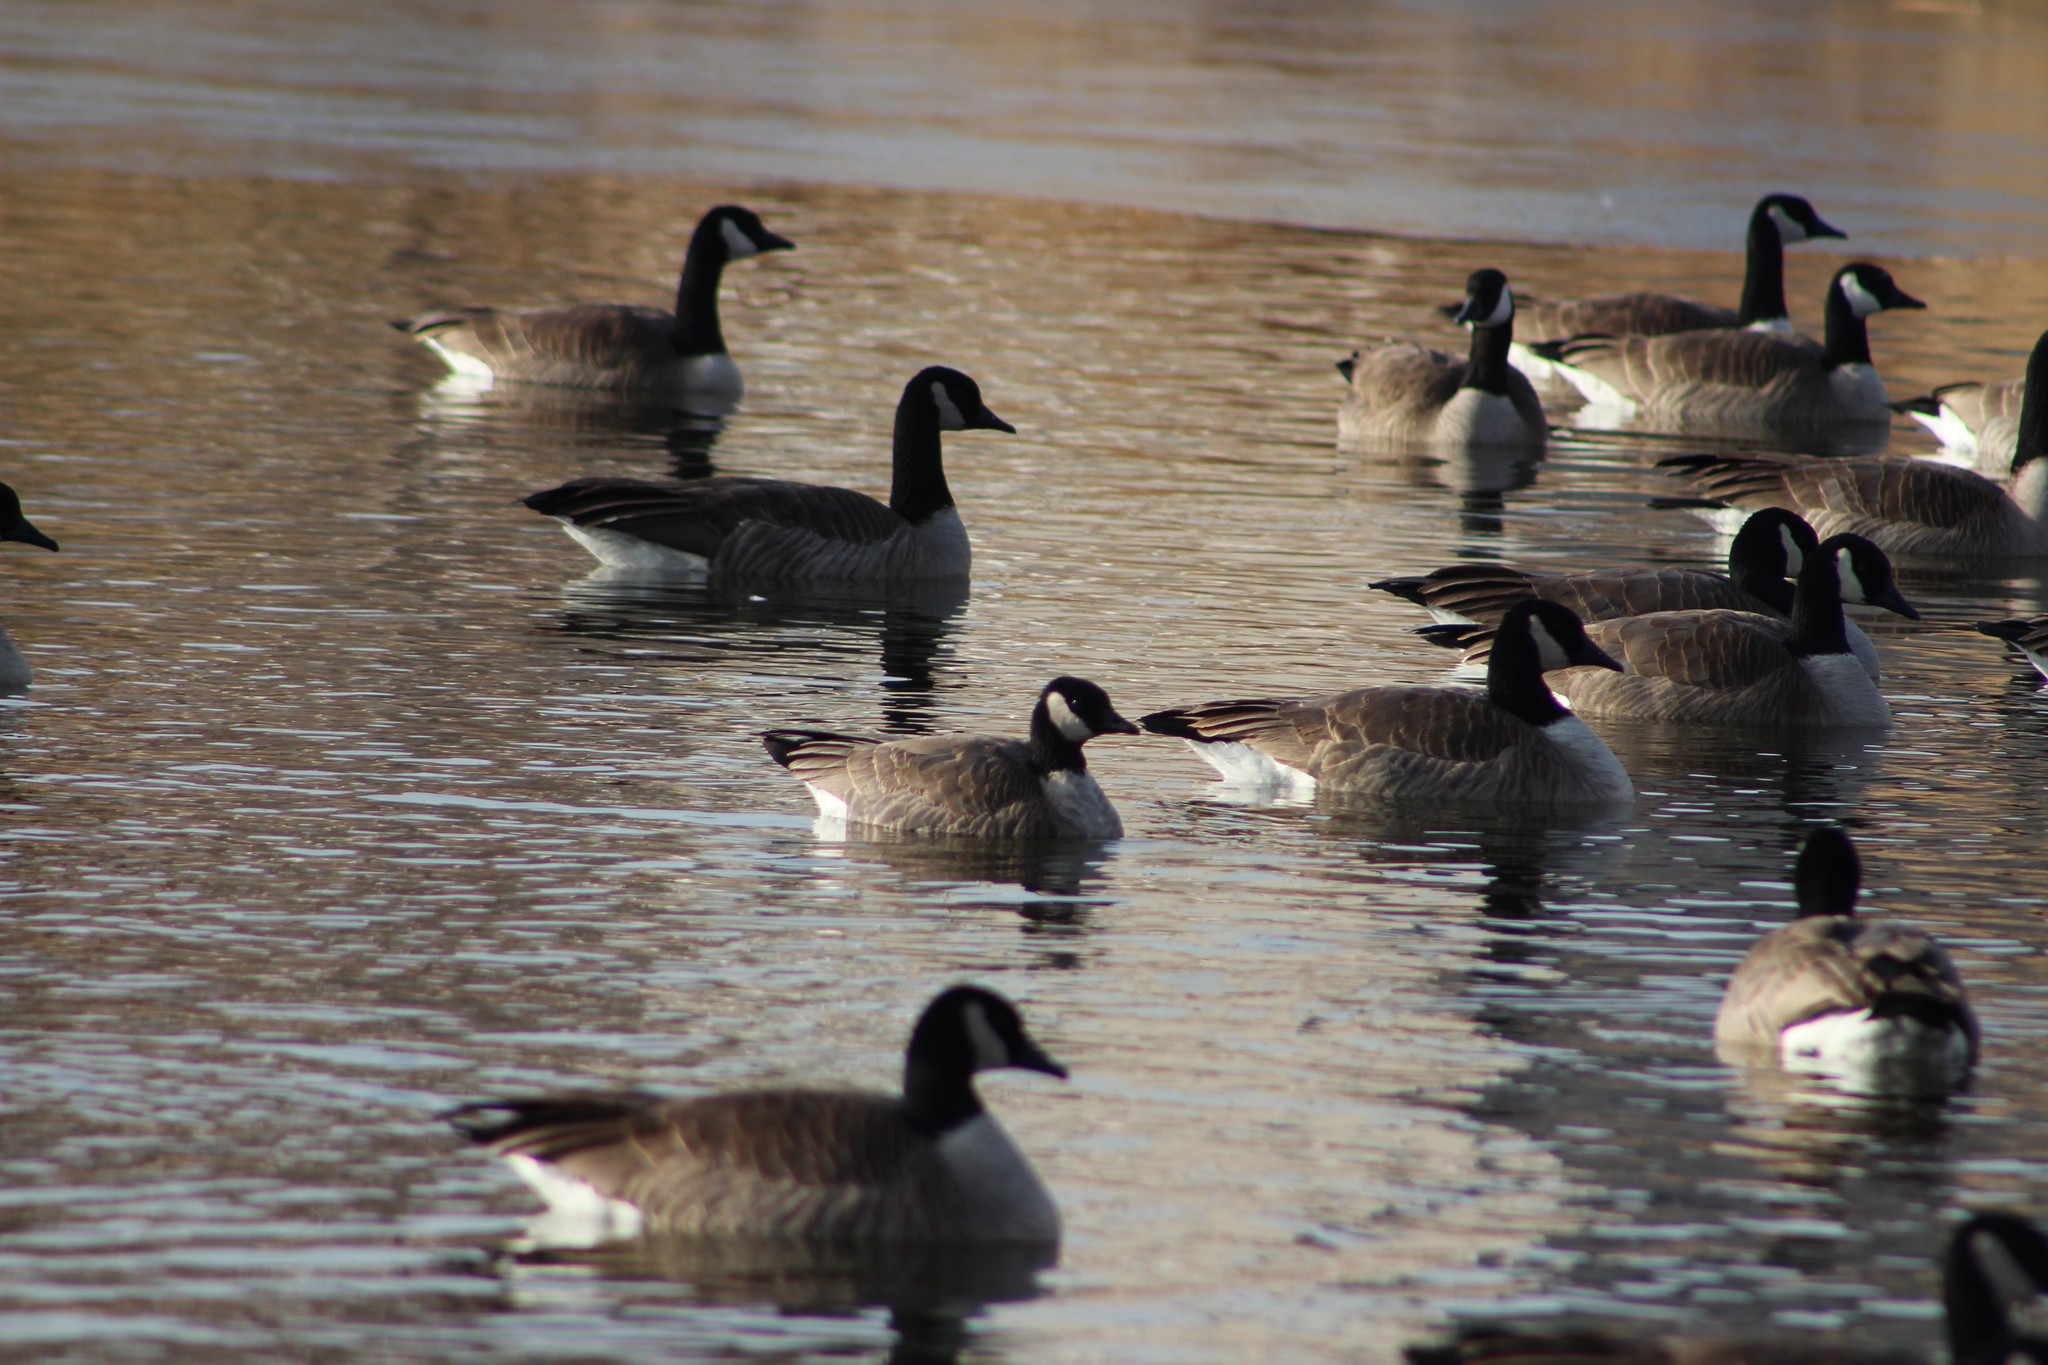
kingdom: Animalia
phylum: Chordata
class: Aves
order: Anseriformes
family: Anatidae
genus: Branta
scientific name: Branta hutchinsii
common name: Cackling goose
